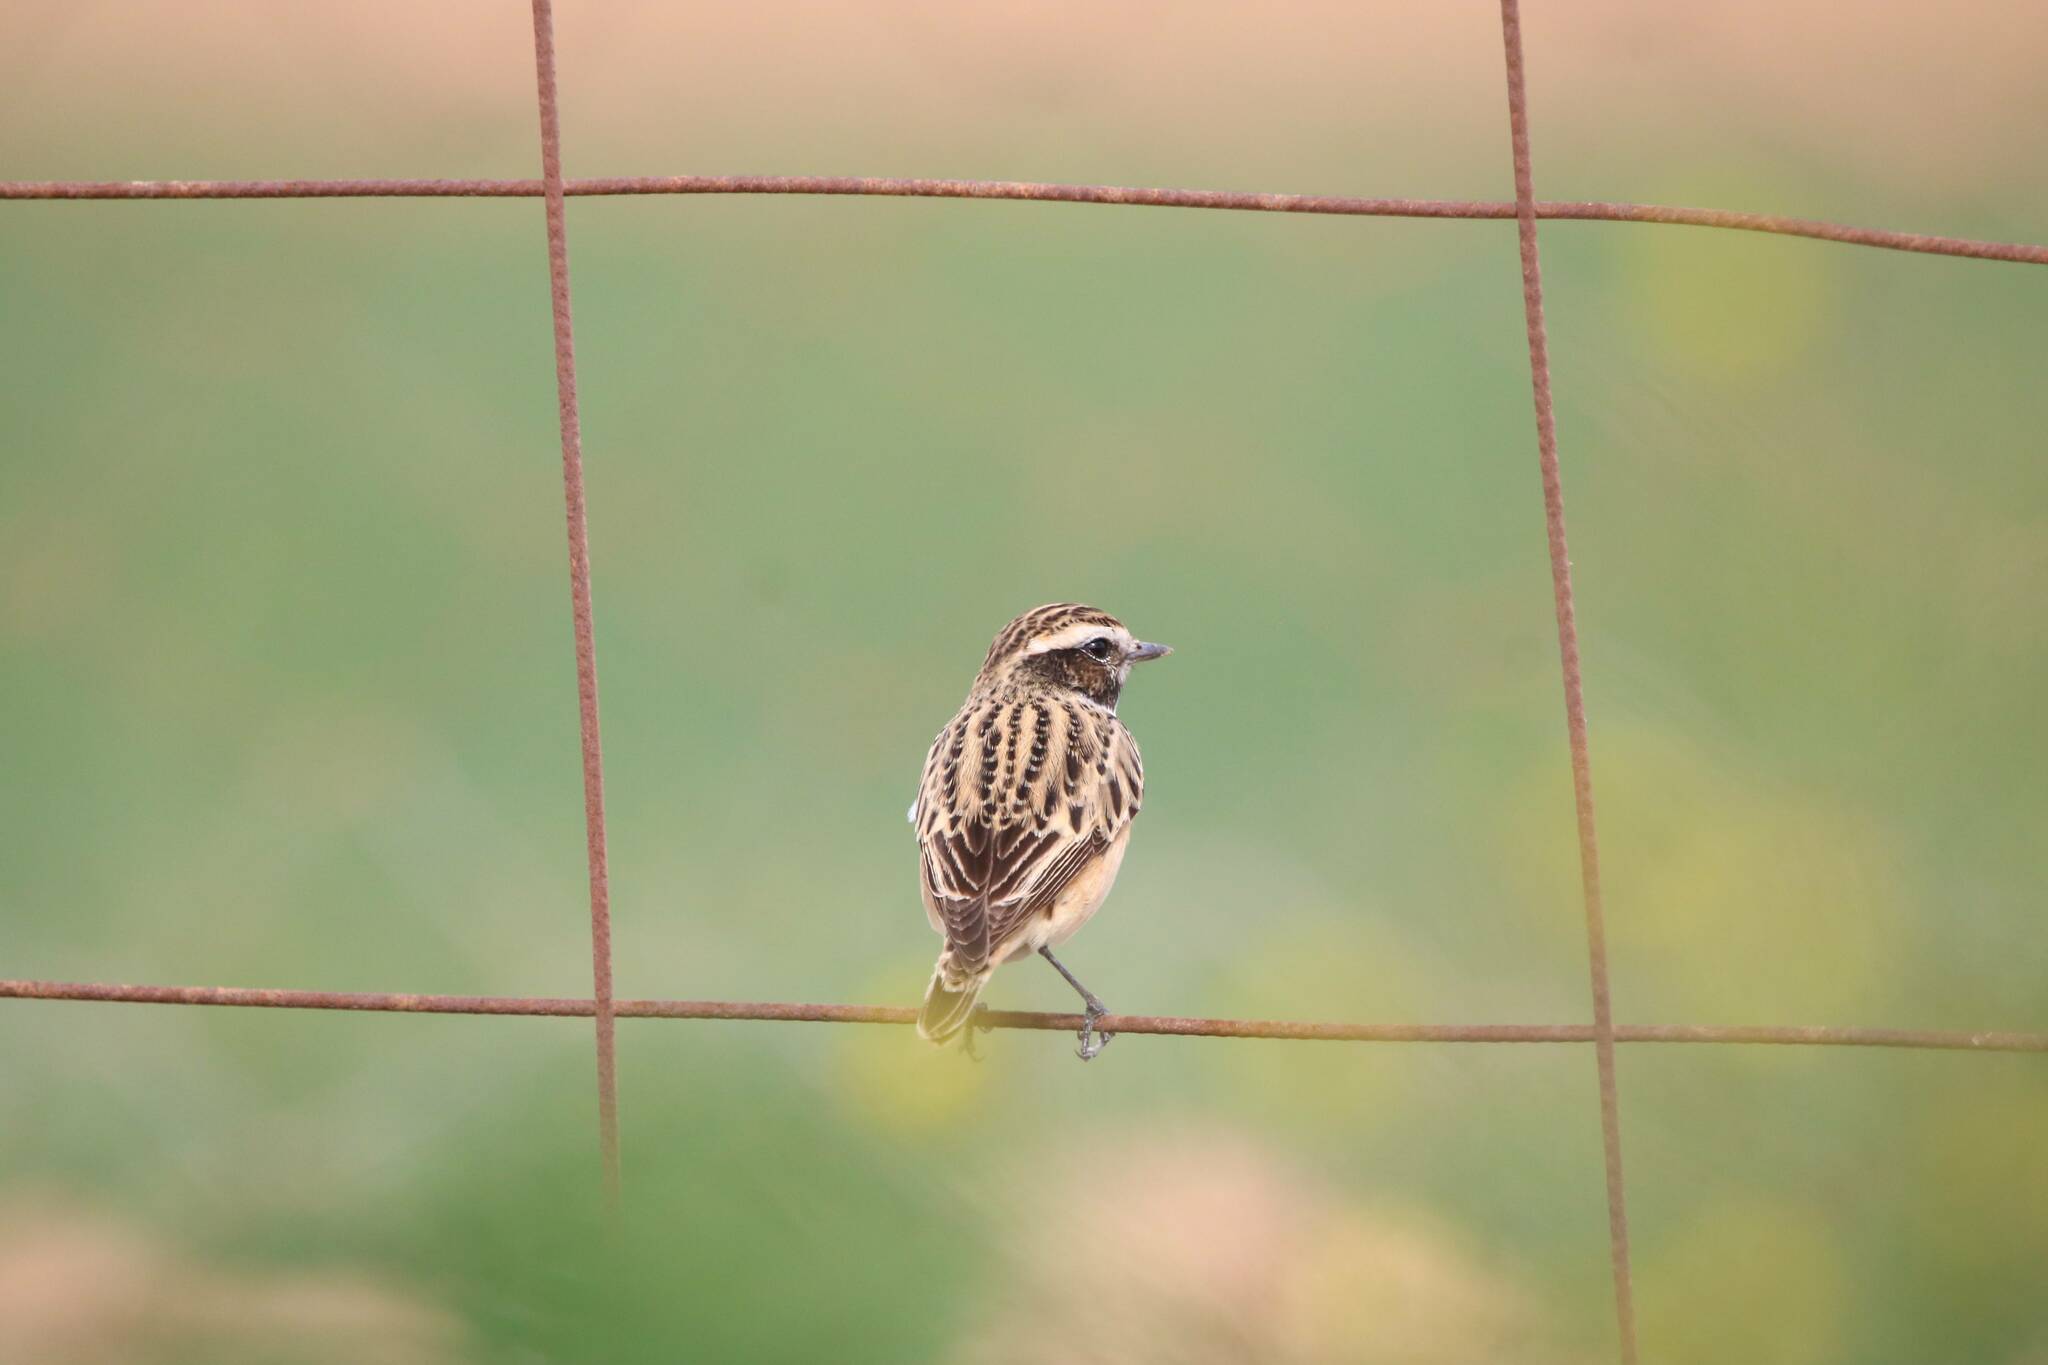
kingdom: Animalia
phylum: Chordata
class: Aves
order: Passeriformes
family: Muscicapidae
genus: Saxicola
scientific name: Saxicola rubetra
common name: Whinchat
